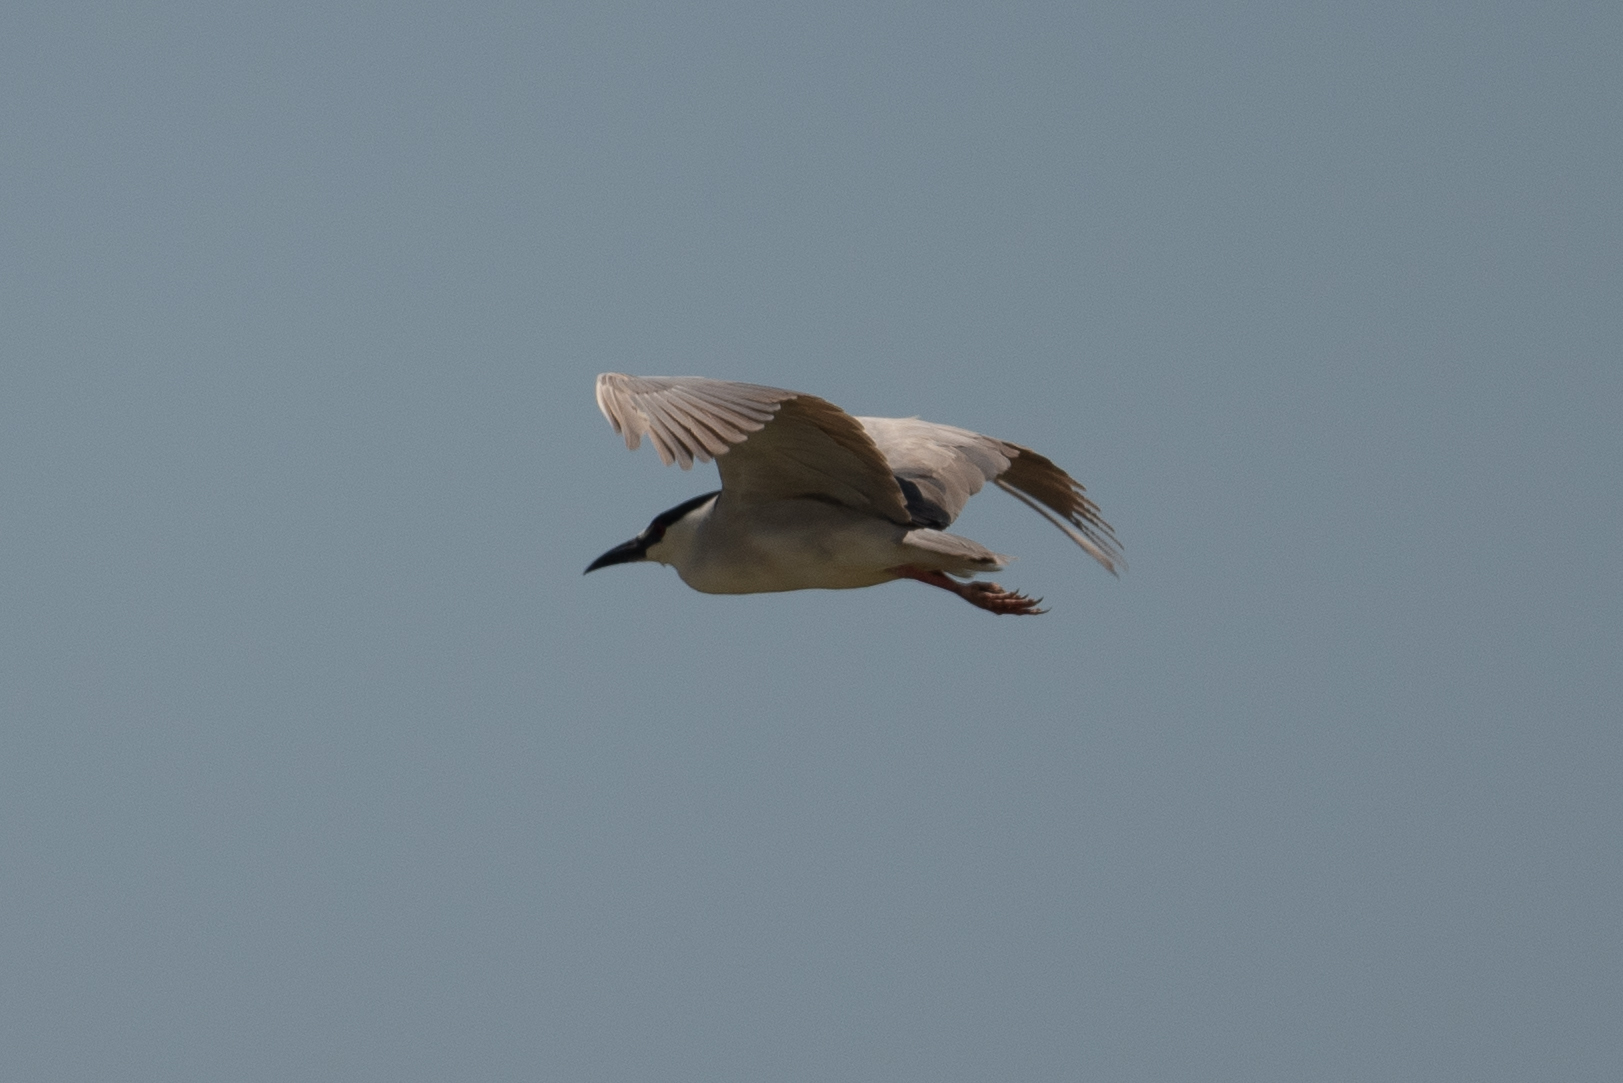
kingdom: Animalia
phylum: Chordata
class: Aves
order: Pelecaniformes
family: Ardeidae
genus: Nycticorax
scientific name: Nycticorax nycticorax
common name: Black-crowned night heron
